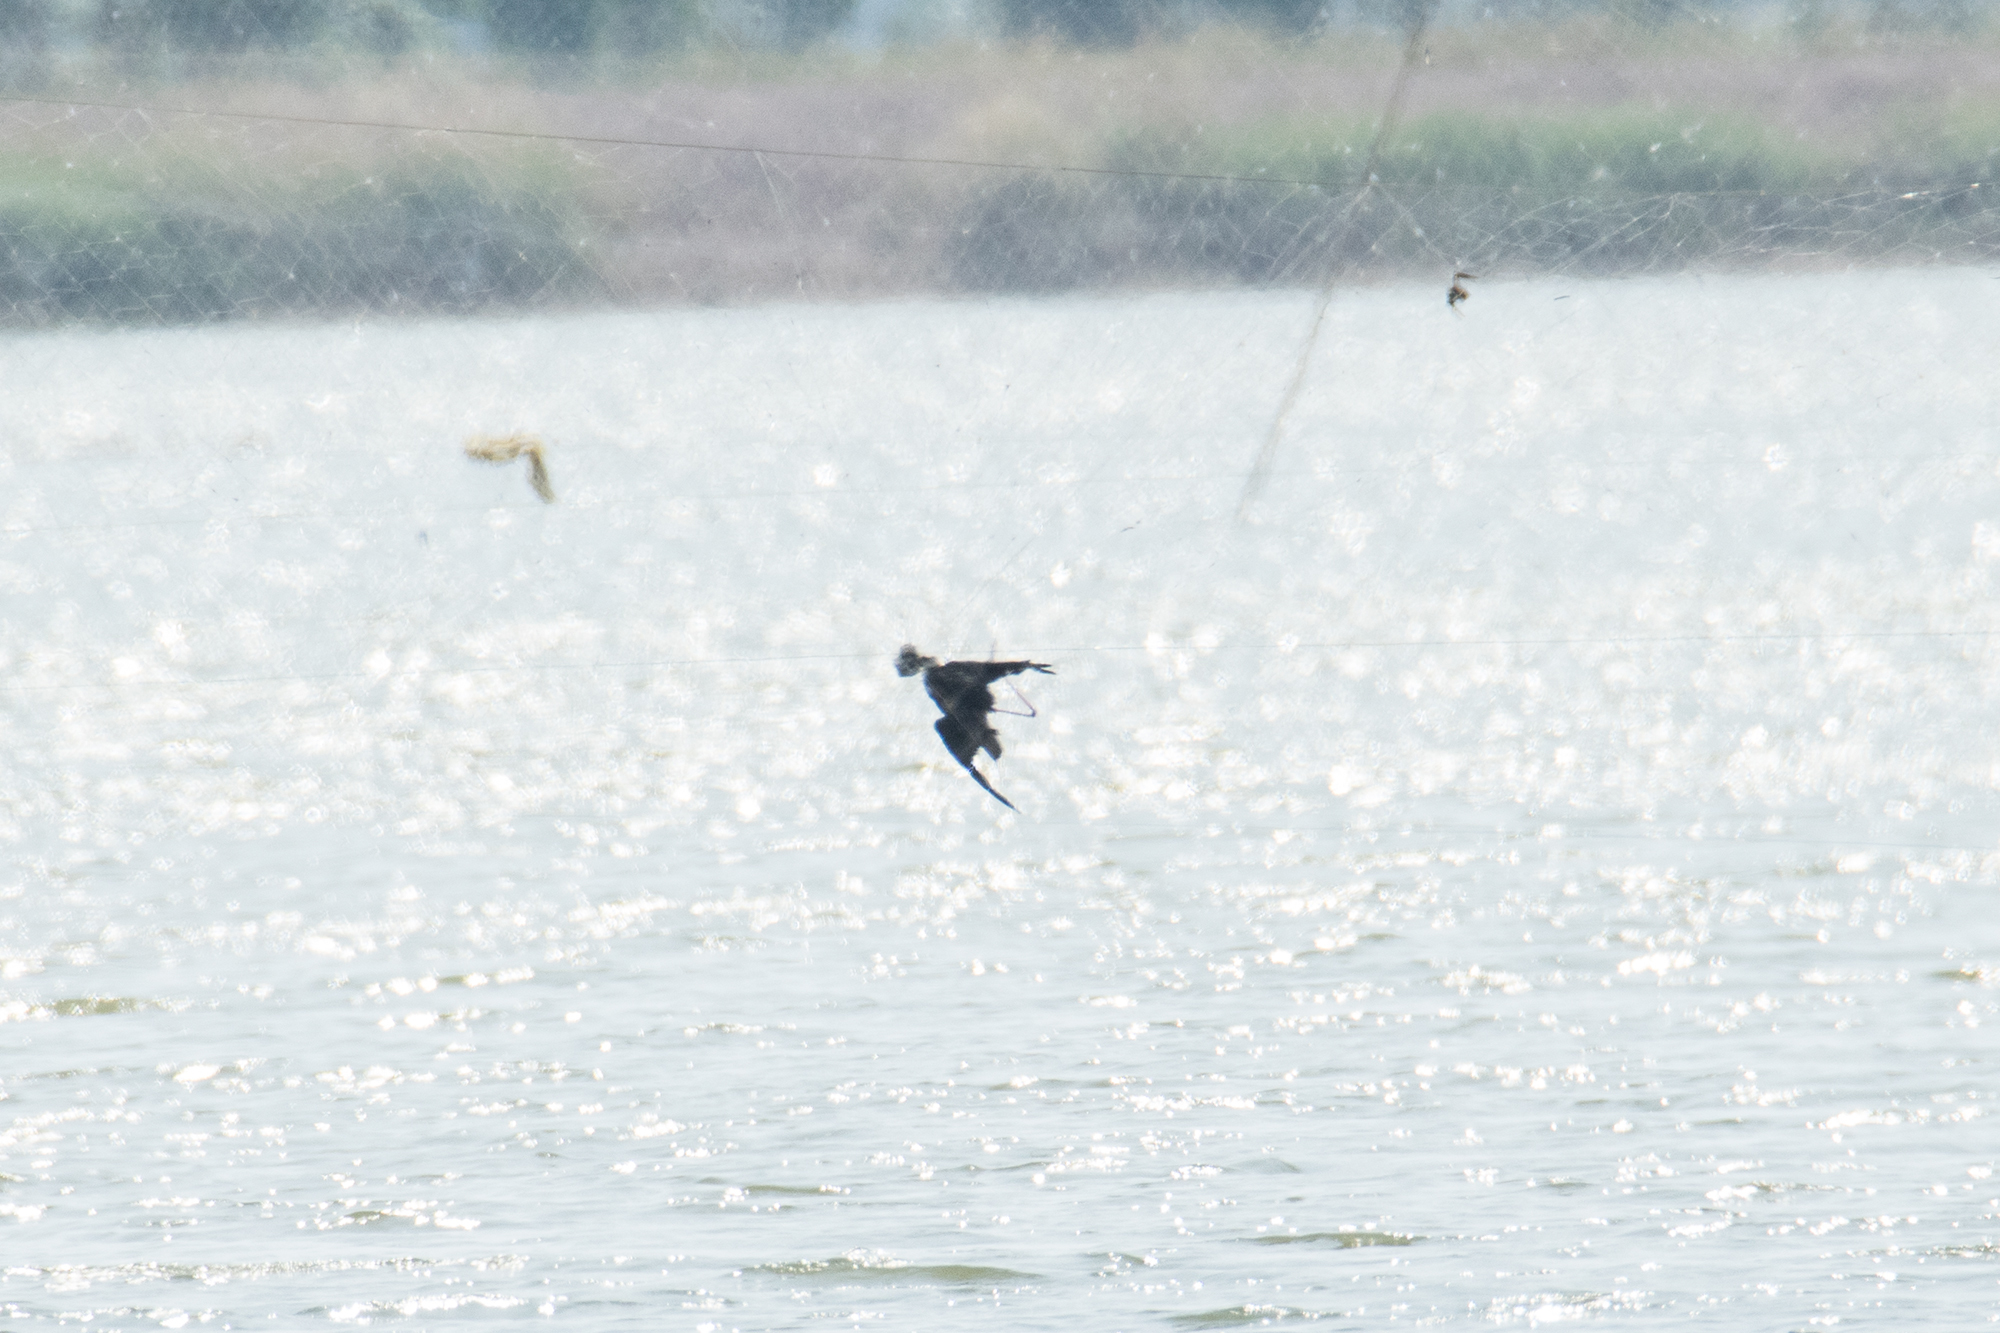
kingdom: Animalia
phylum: Chordata
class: Aves
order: Charadriiformes
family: Recurvirostridae
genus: Himantopus
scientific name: Himantopus himantopus
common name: Black-winged stilt
